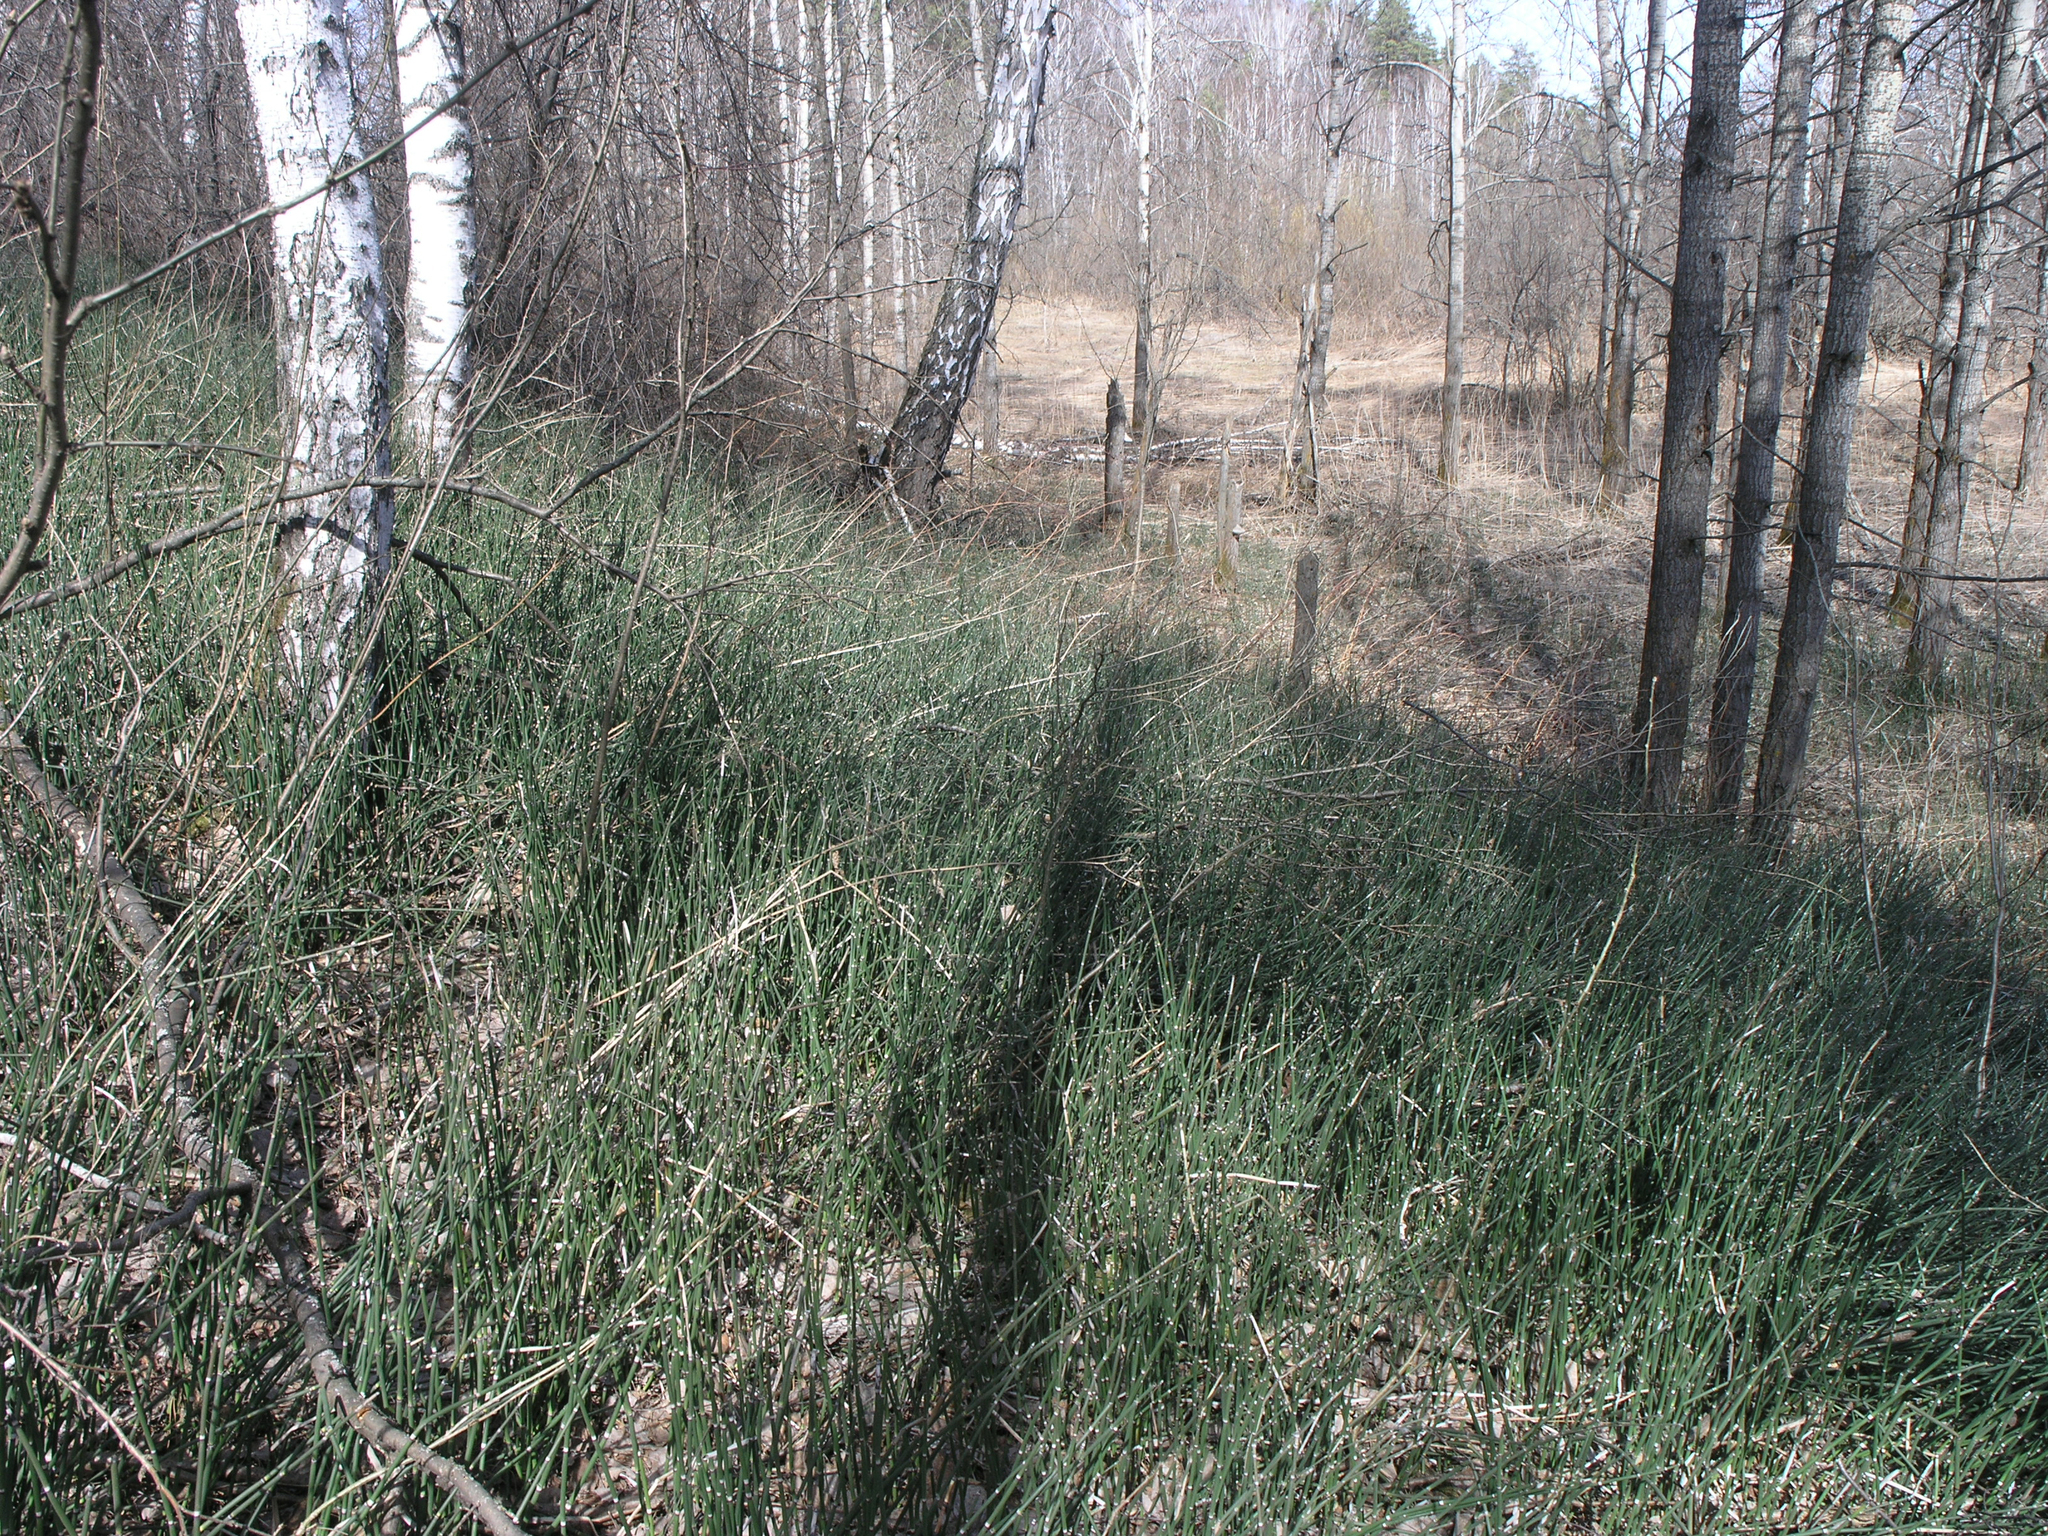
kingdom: Plantae
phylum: Tracheophyta
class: Polypodiopsida
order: Equisetales
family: Equisetaceae
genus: Equisetum
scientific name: Equisetum hyemale
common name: Rough horsetail
